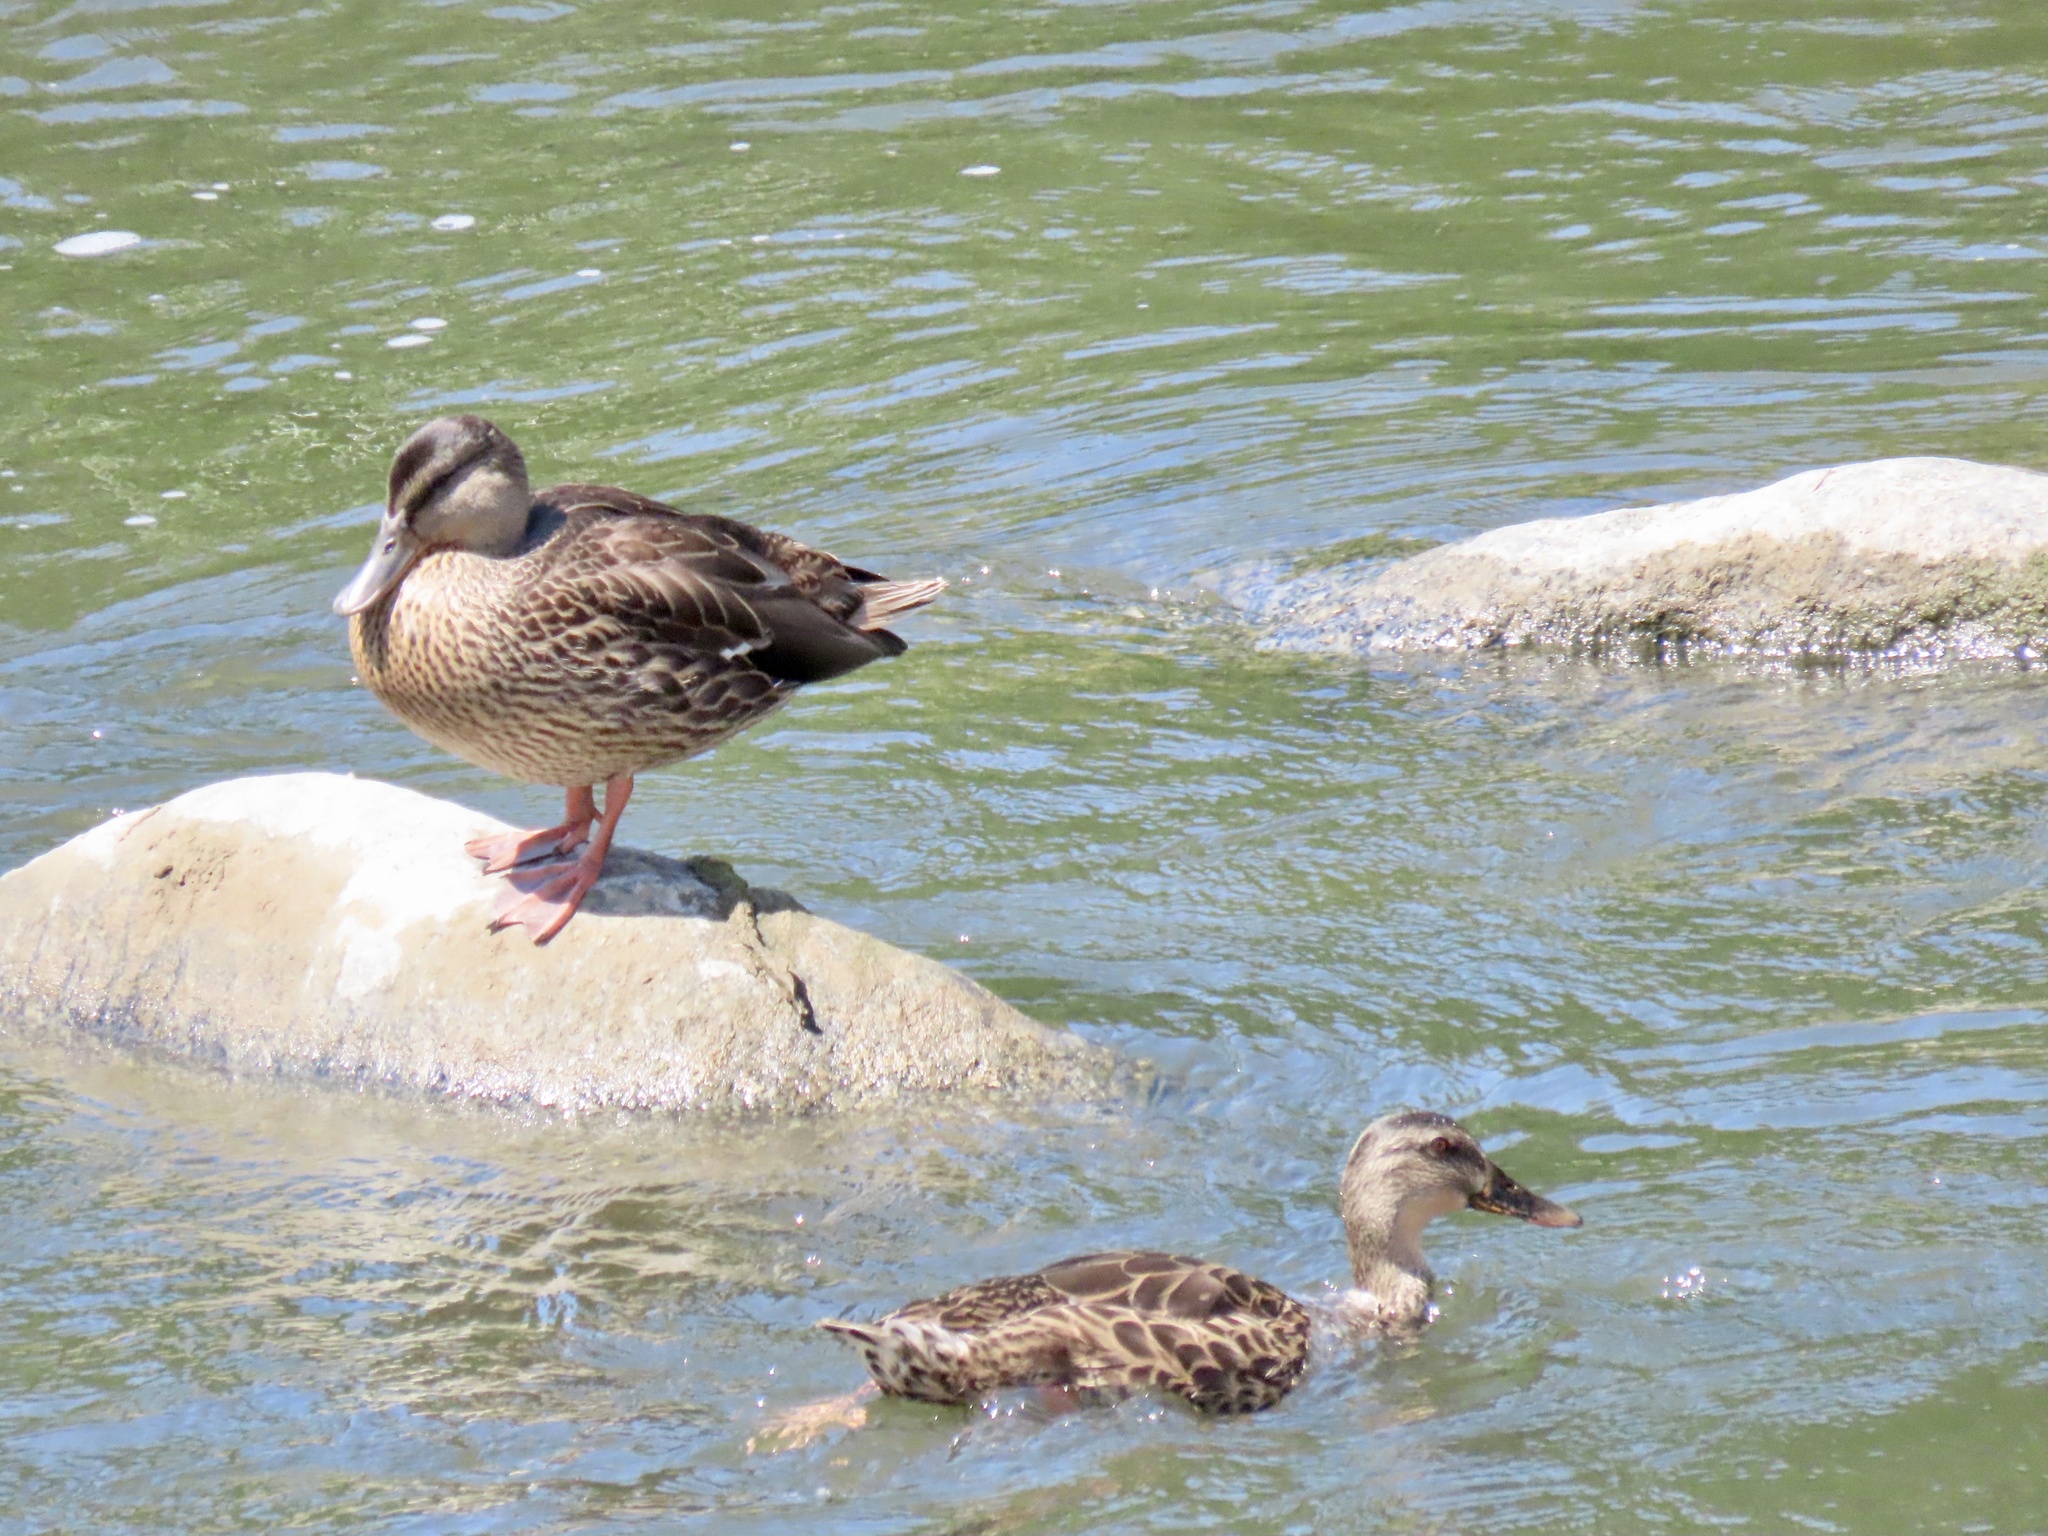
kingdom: Animalia
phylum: Chordata
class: Aves
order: Anseriformes
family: Anatidae
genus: Anas
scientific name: Anas platyrhynchos
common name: Mallard
